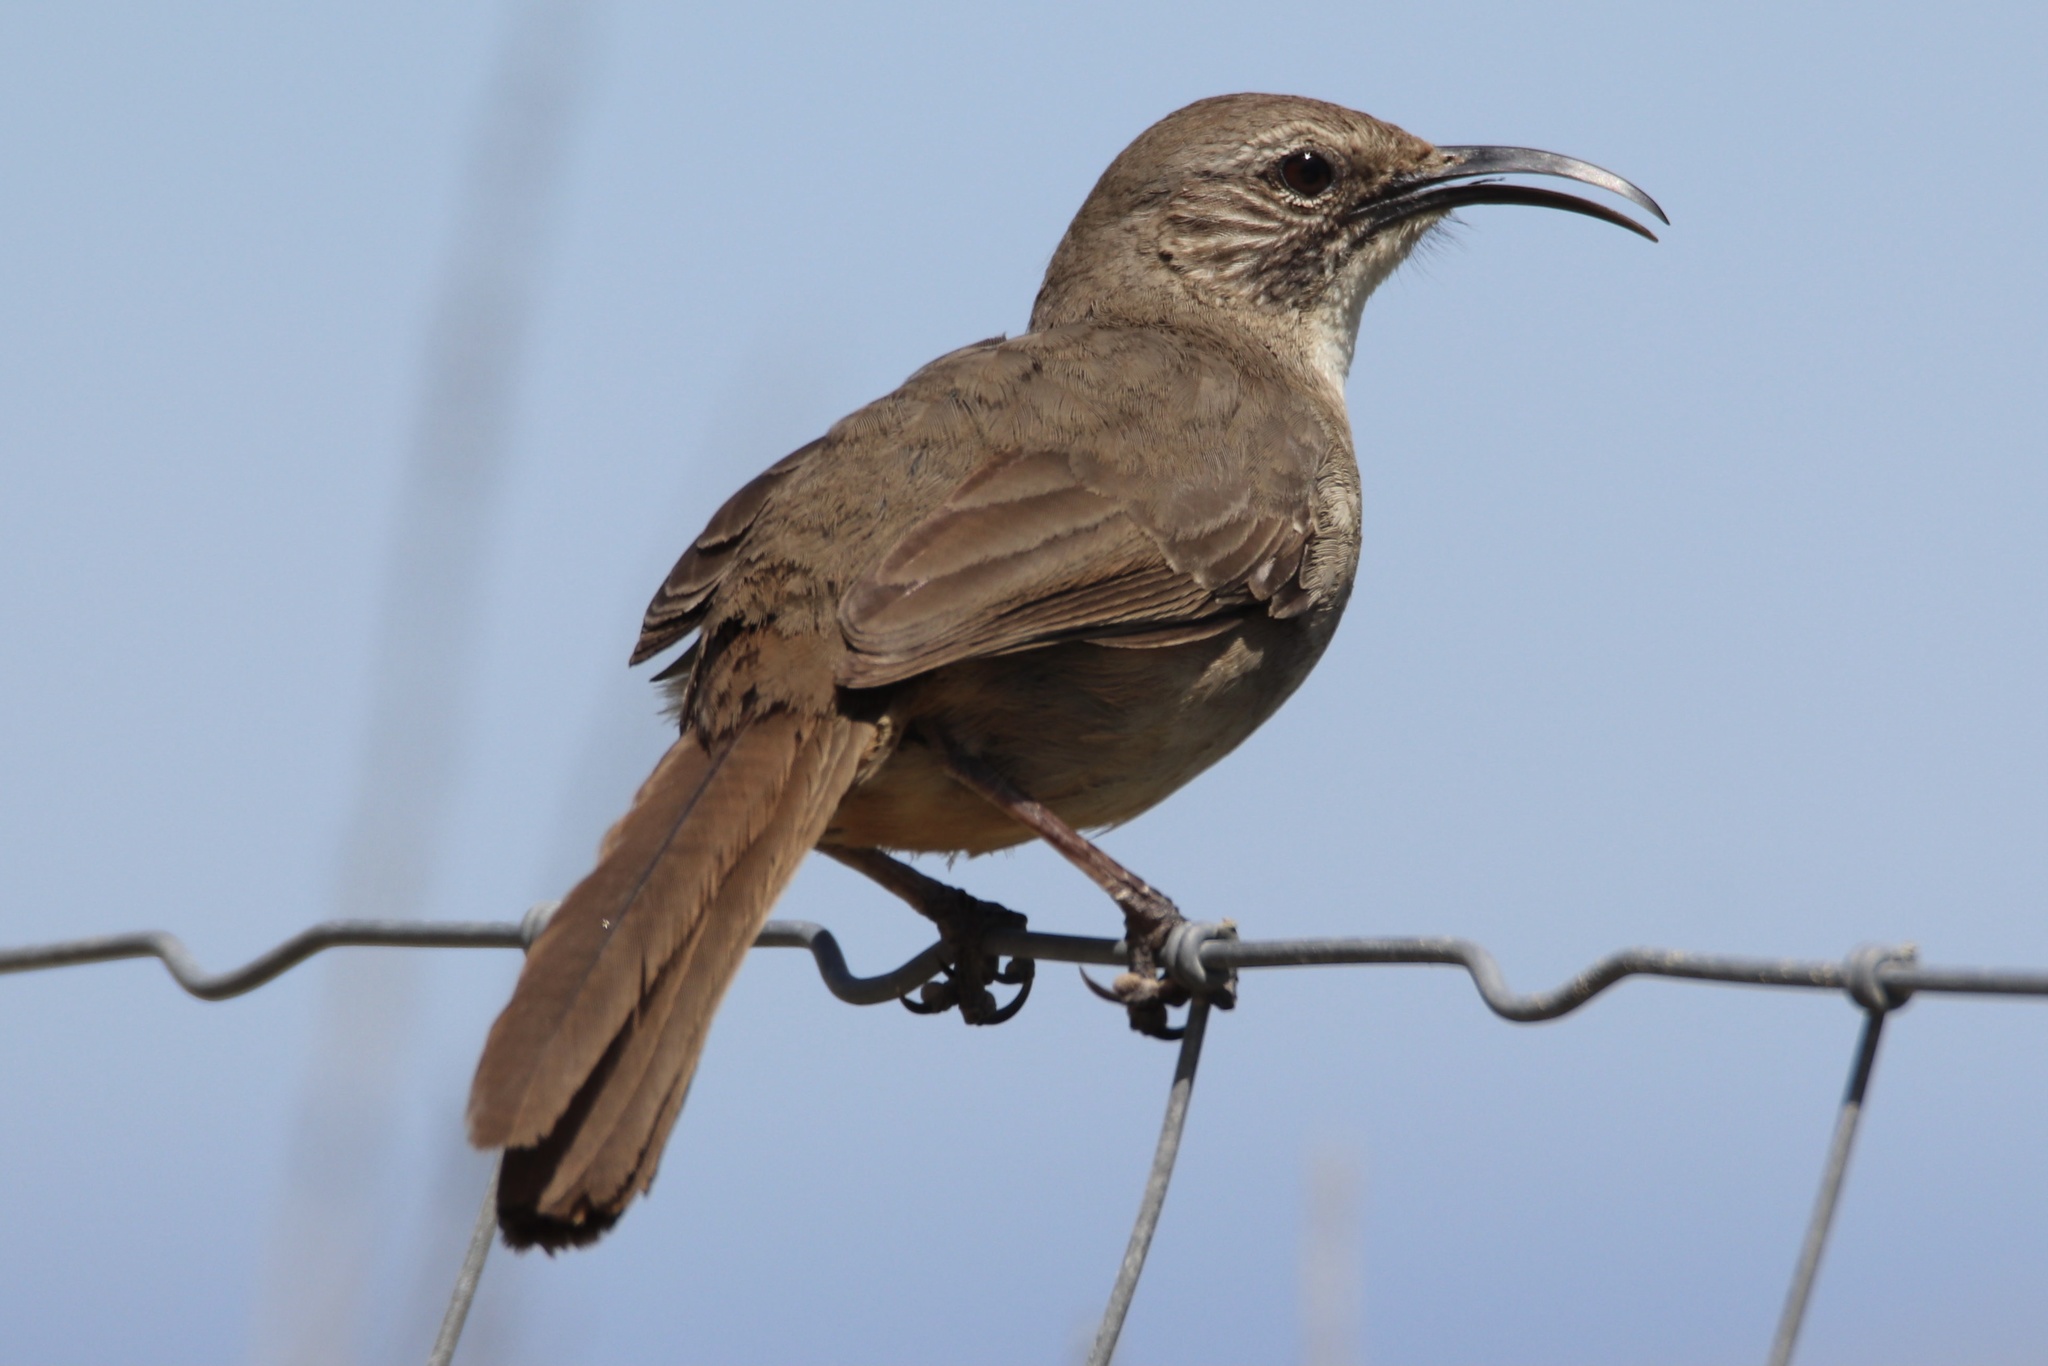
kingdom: Animalia
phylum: Chordata
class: Aves
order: Passeriformes
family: Mimidae
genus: Toxostoma
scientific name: Toxostoma redivivum
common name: California thrasher
